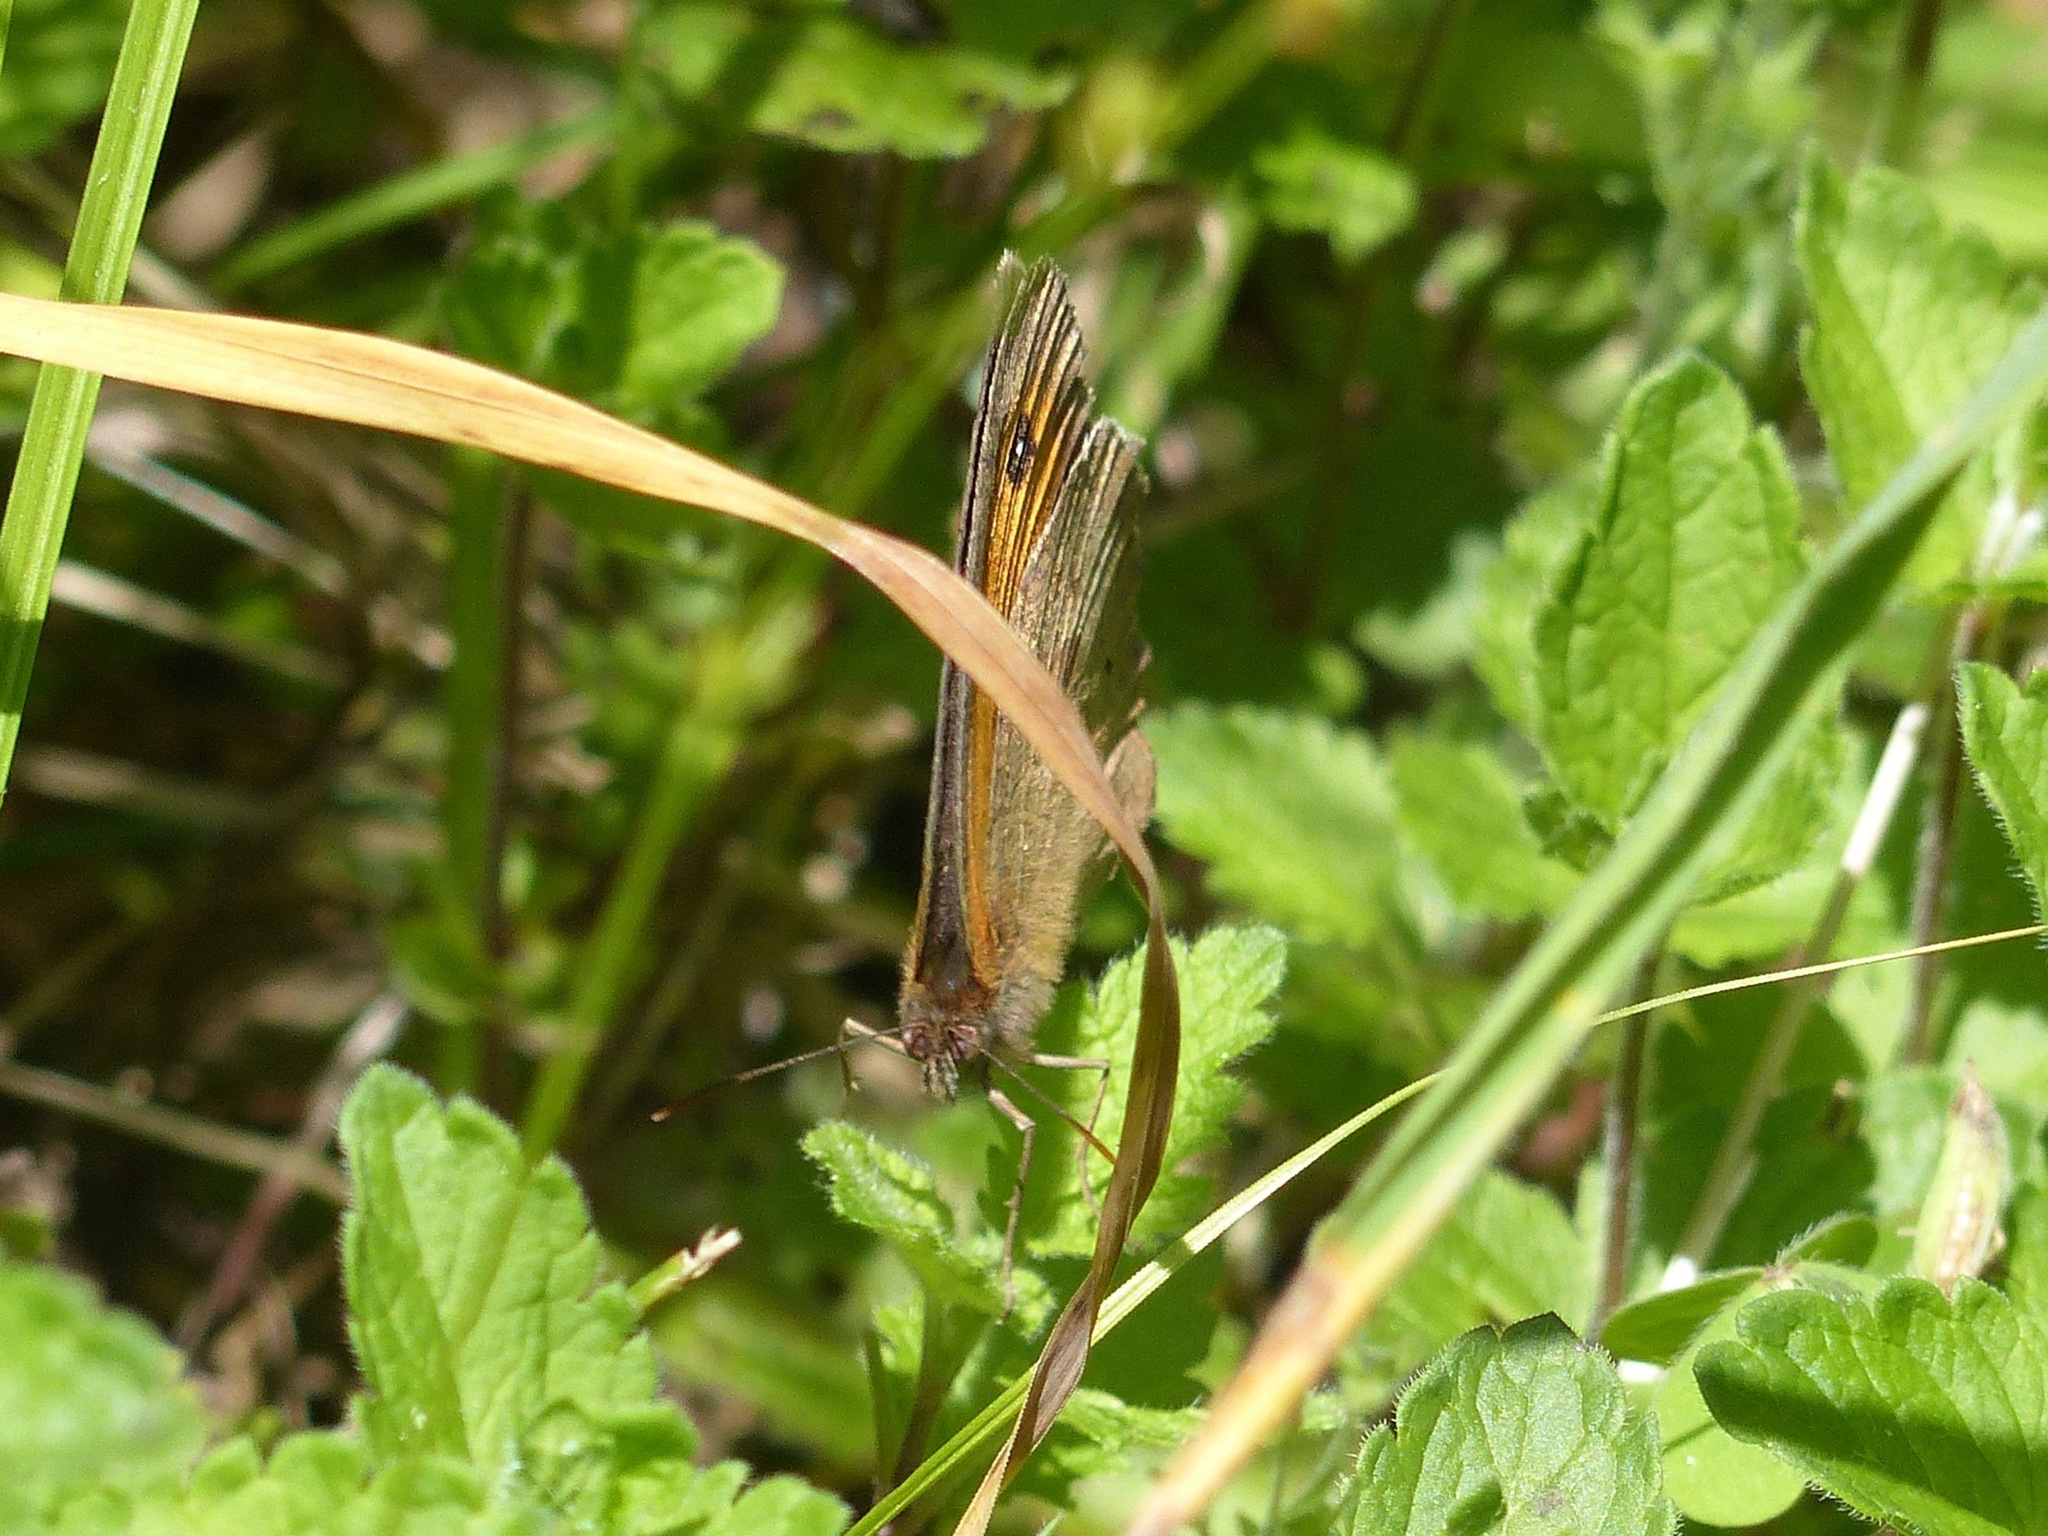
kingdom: Animalia
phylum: Arthropoda
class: Insecta
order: Lepidoptera
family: Nymphalidae
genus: Maniola
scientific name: Maniola jurtina
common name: Meadow brown
